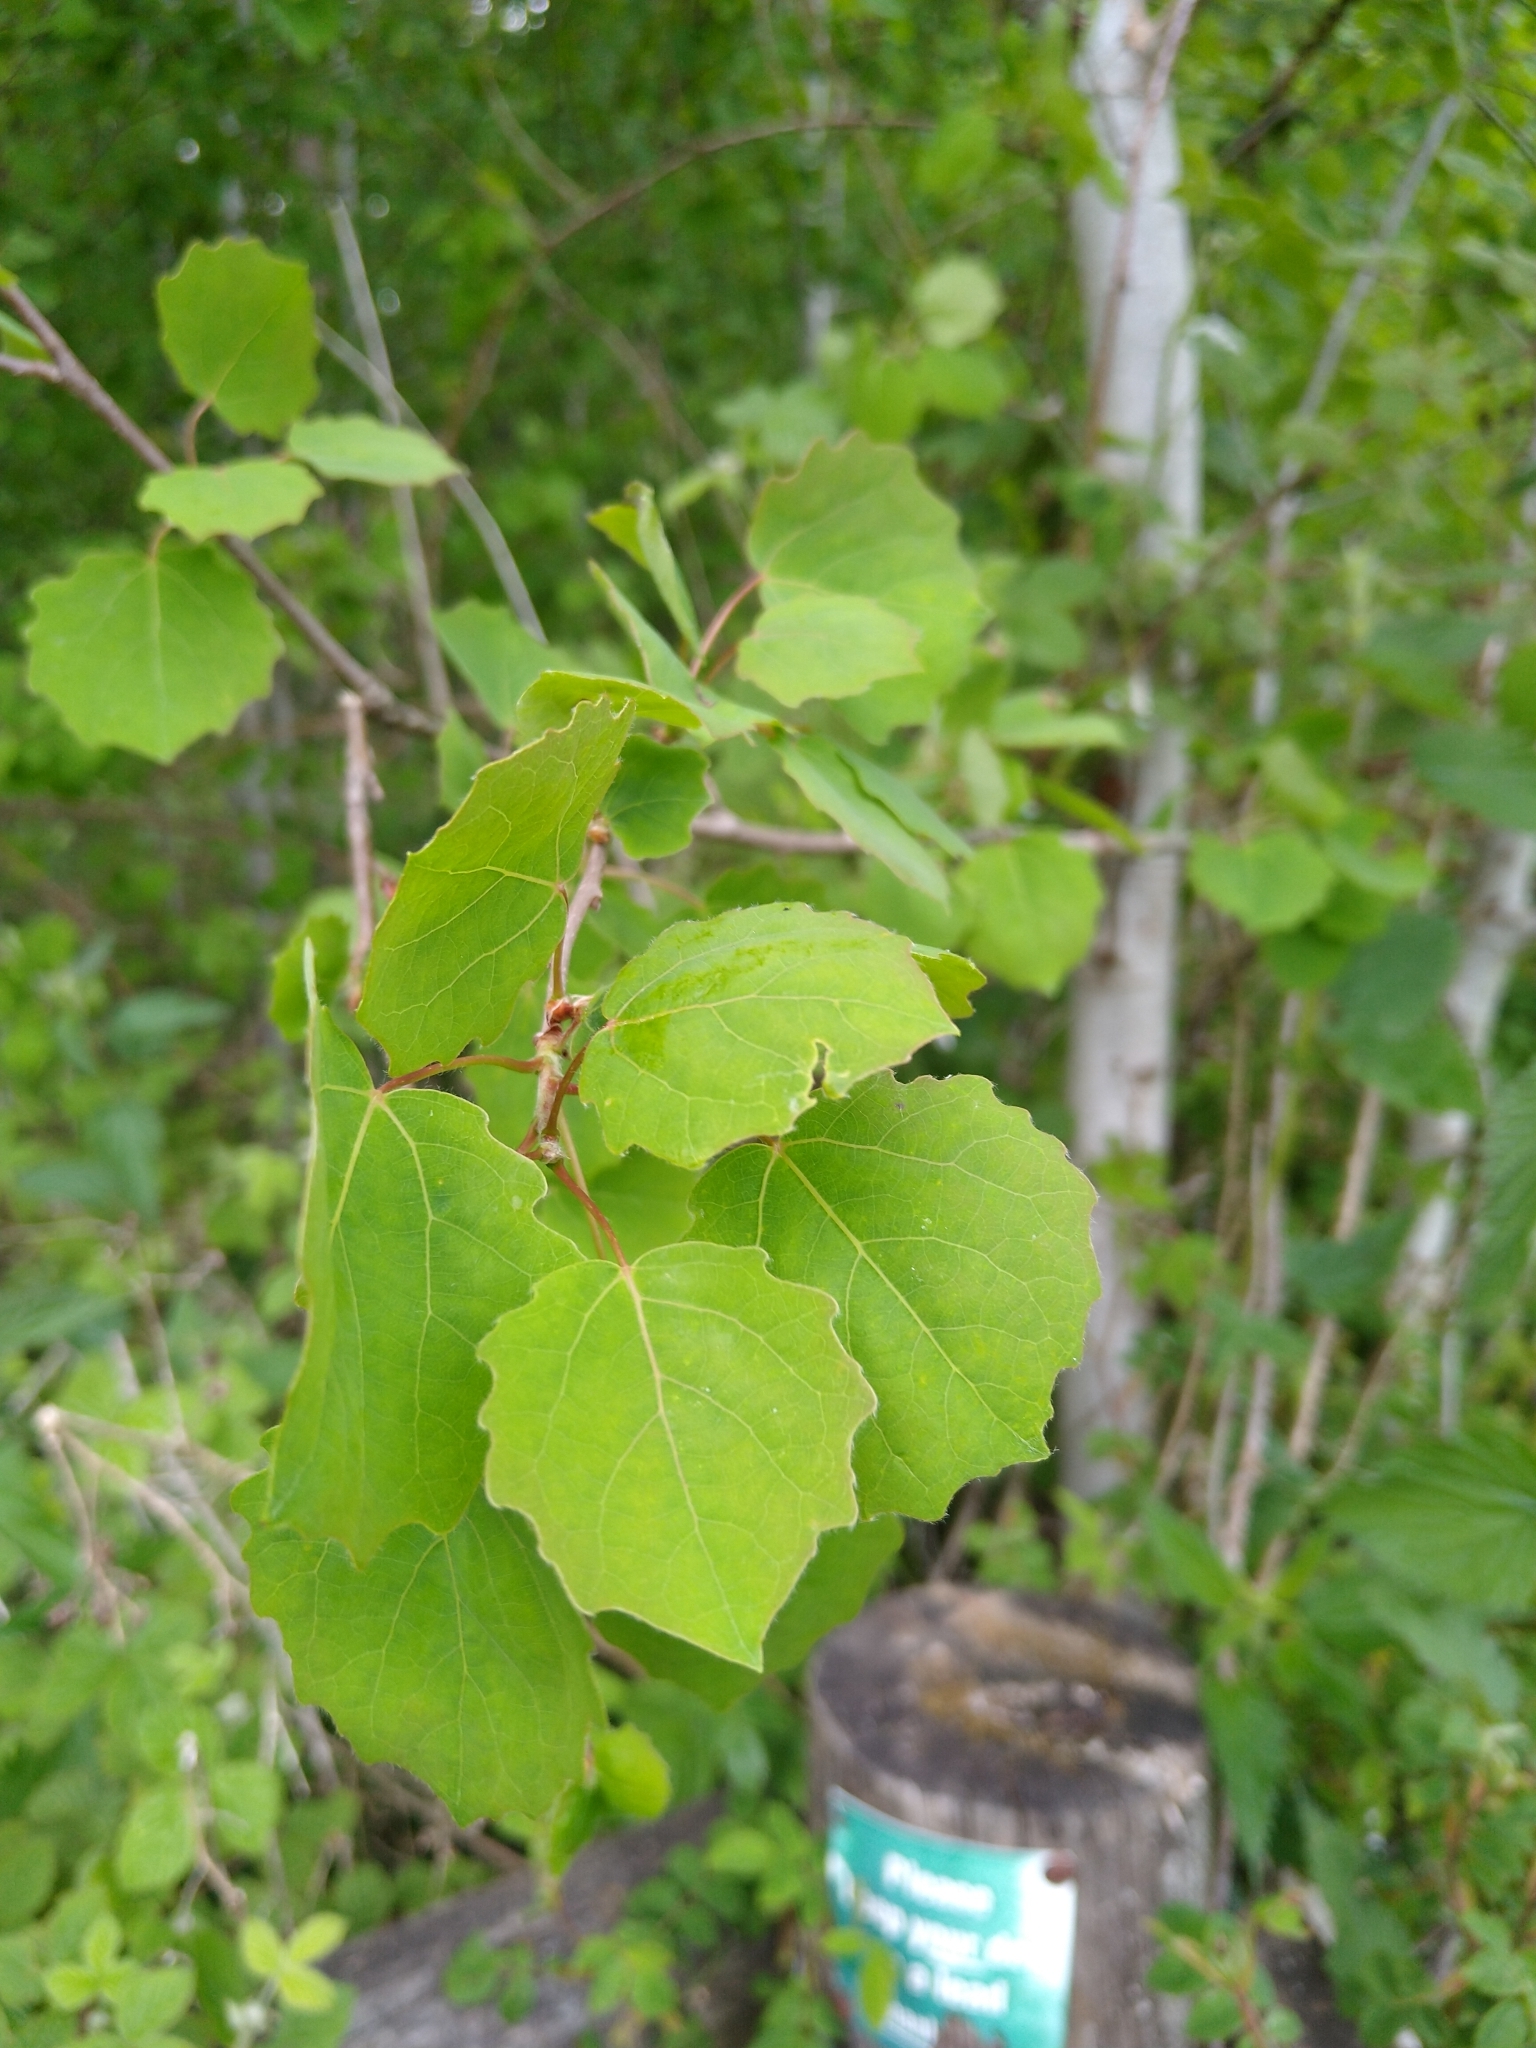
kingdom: Plantae
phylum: Tracheophyta
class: Magnoliopsida
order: Malpighiales
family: Salicaceae
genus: Populus
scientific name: Populus tremula
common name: European aspen
